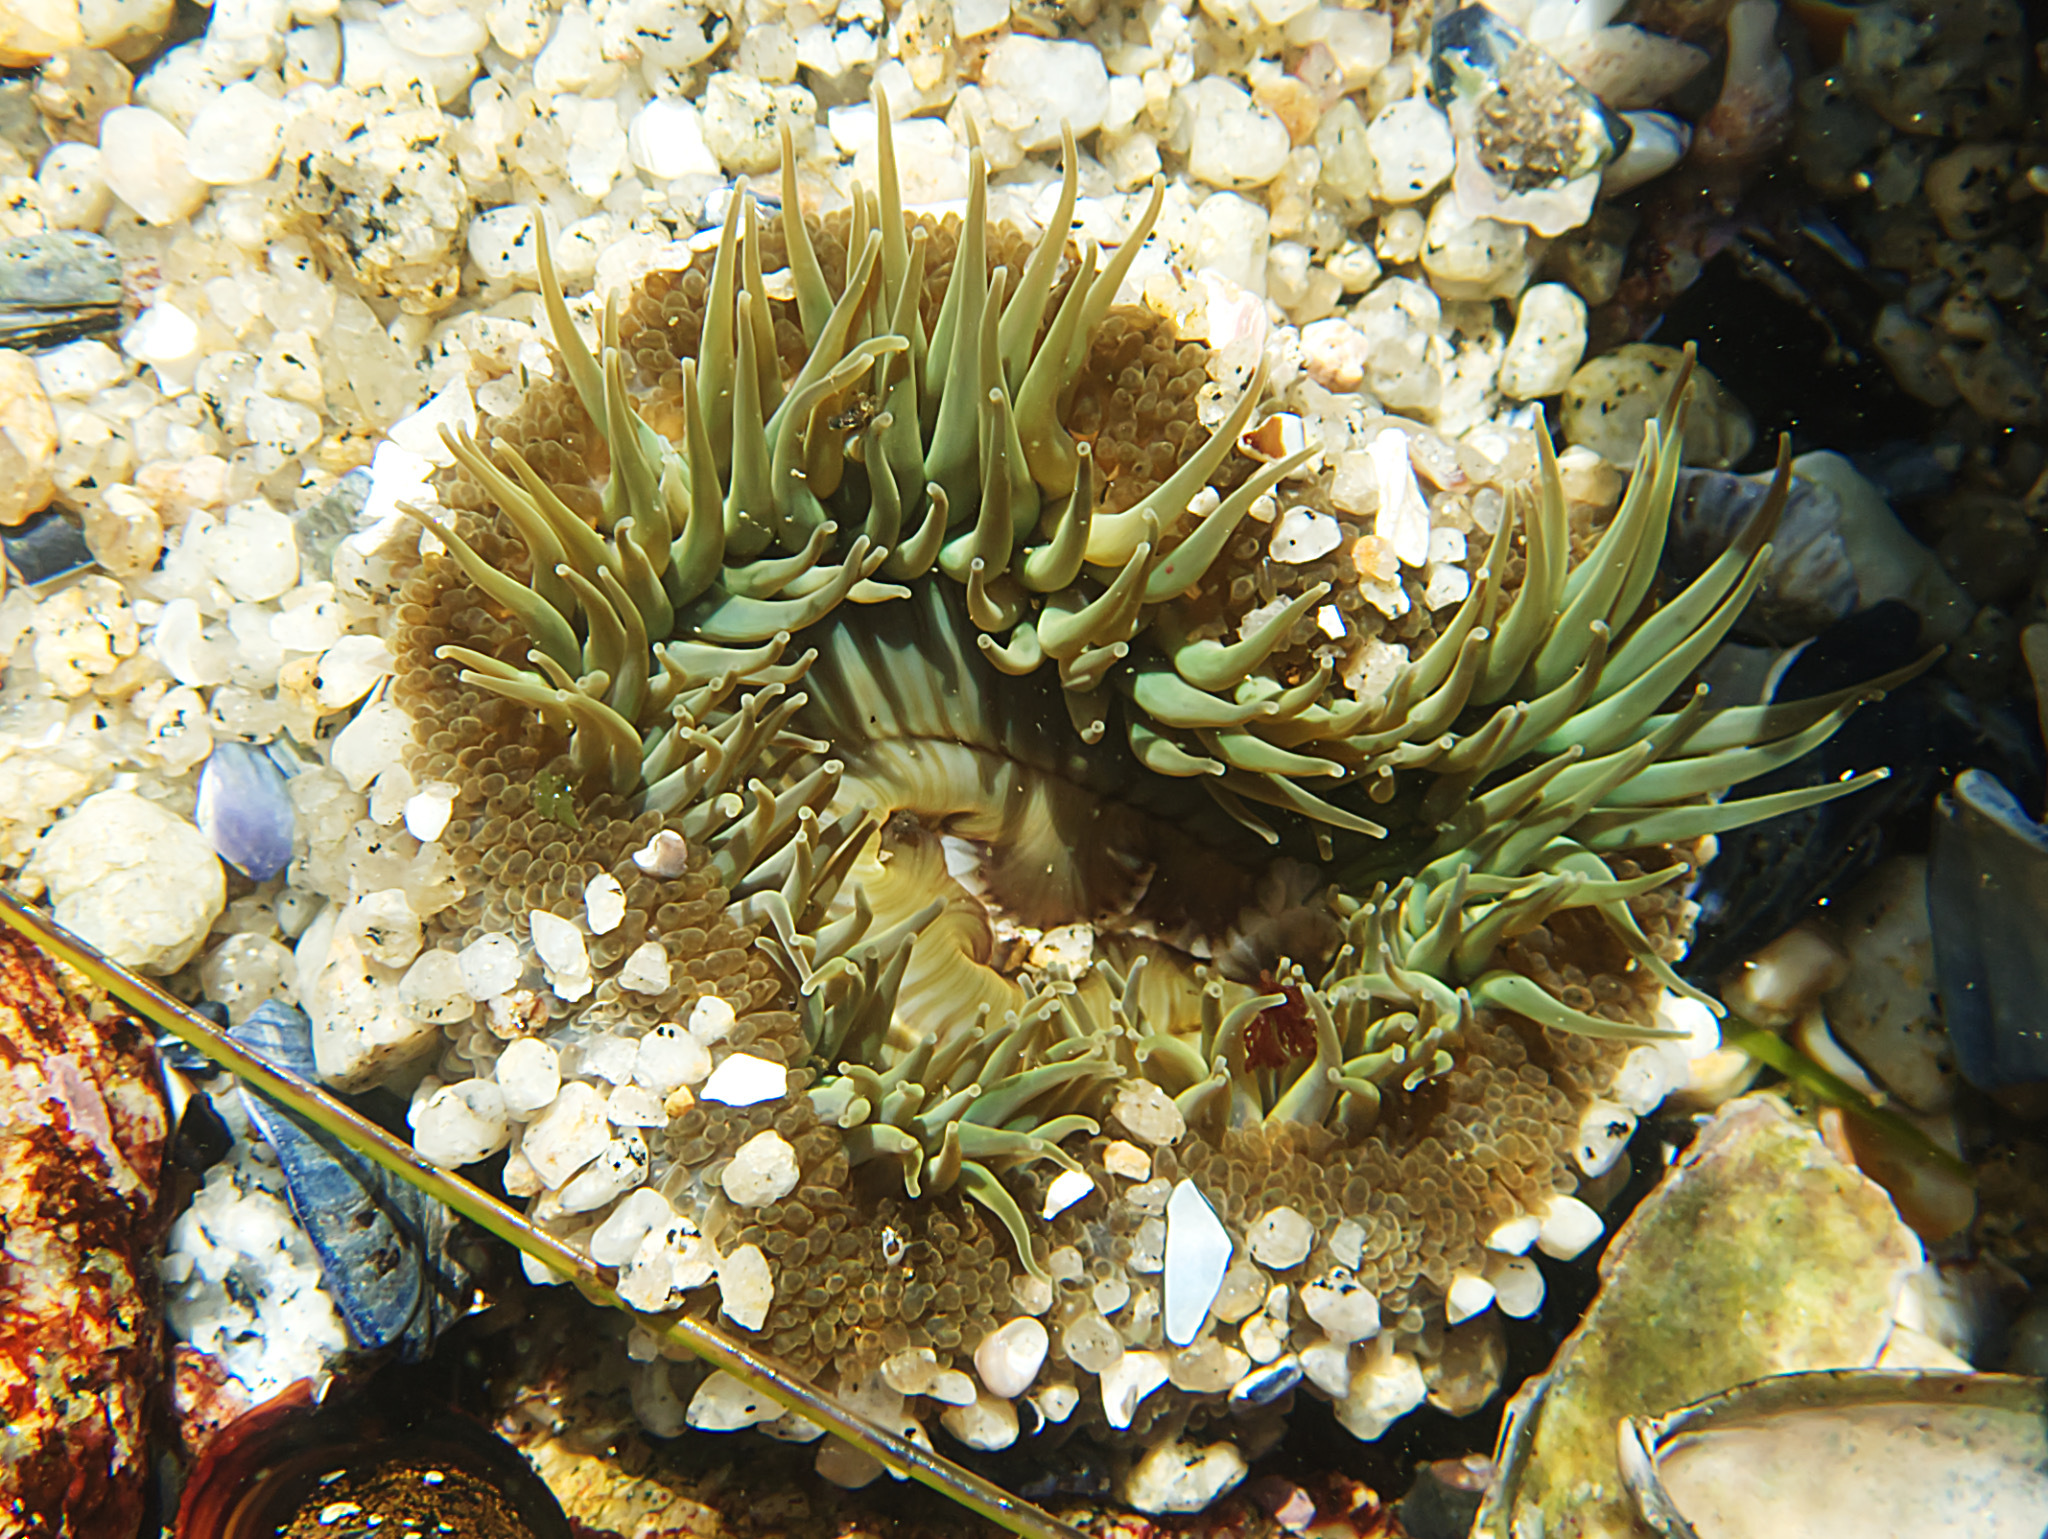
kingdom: Animalia
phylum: Cnidaria
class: Anthozoa
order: Actiniaria
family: Actiniidae
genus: Anthopleura
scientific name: Anthopleura sola
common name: Sun anemone
